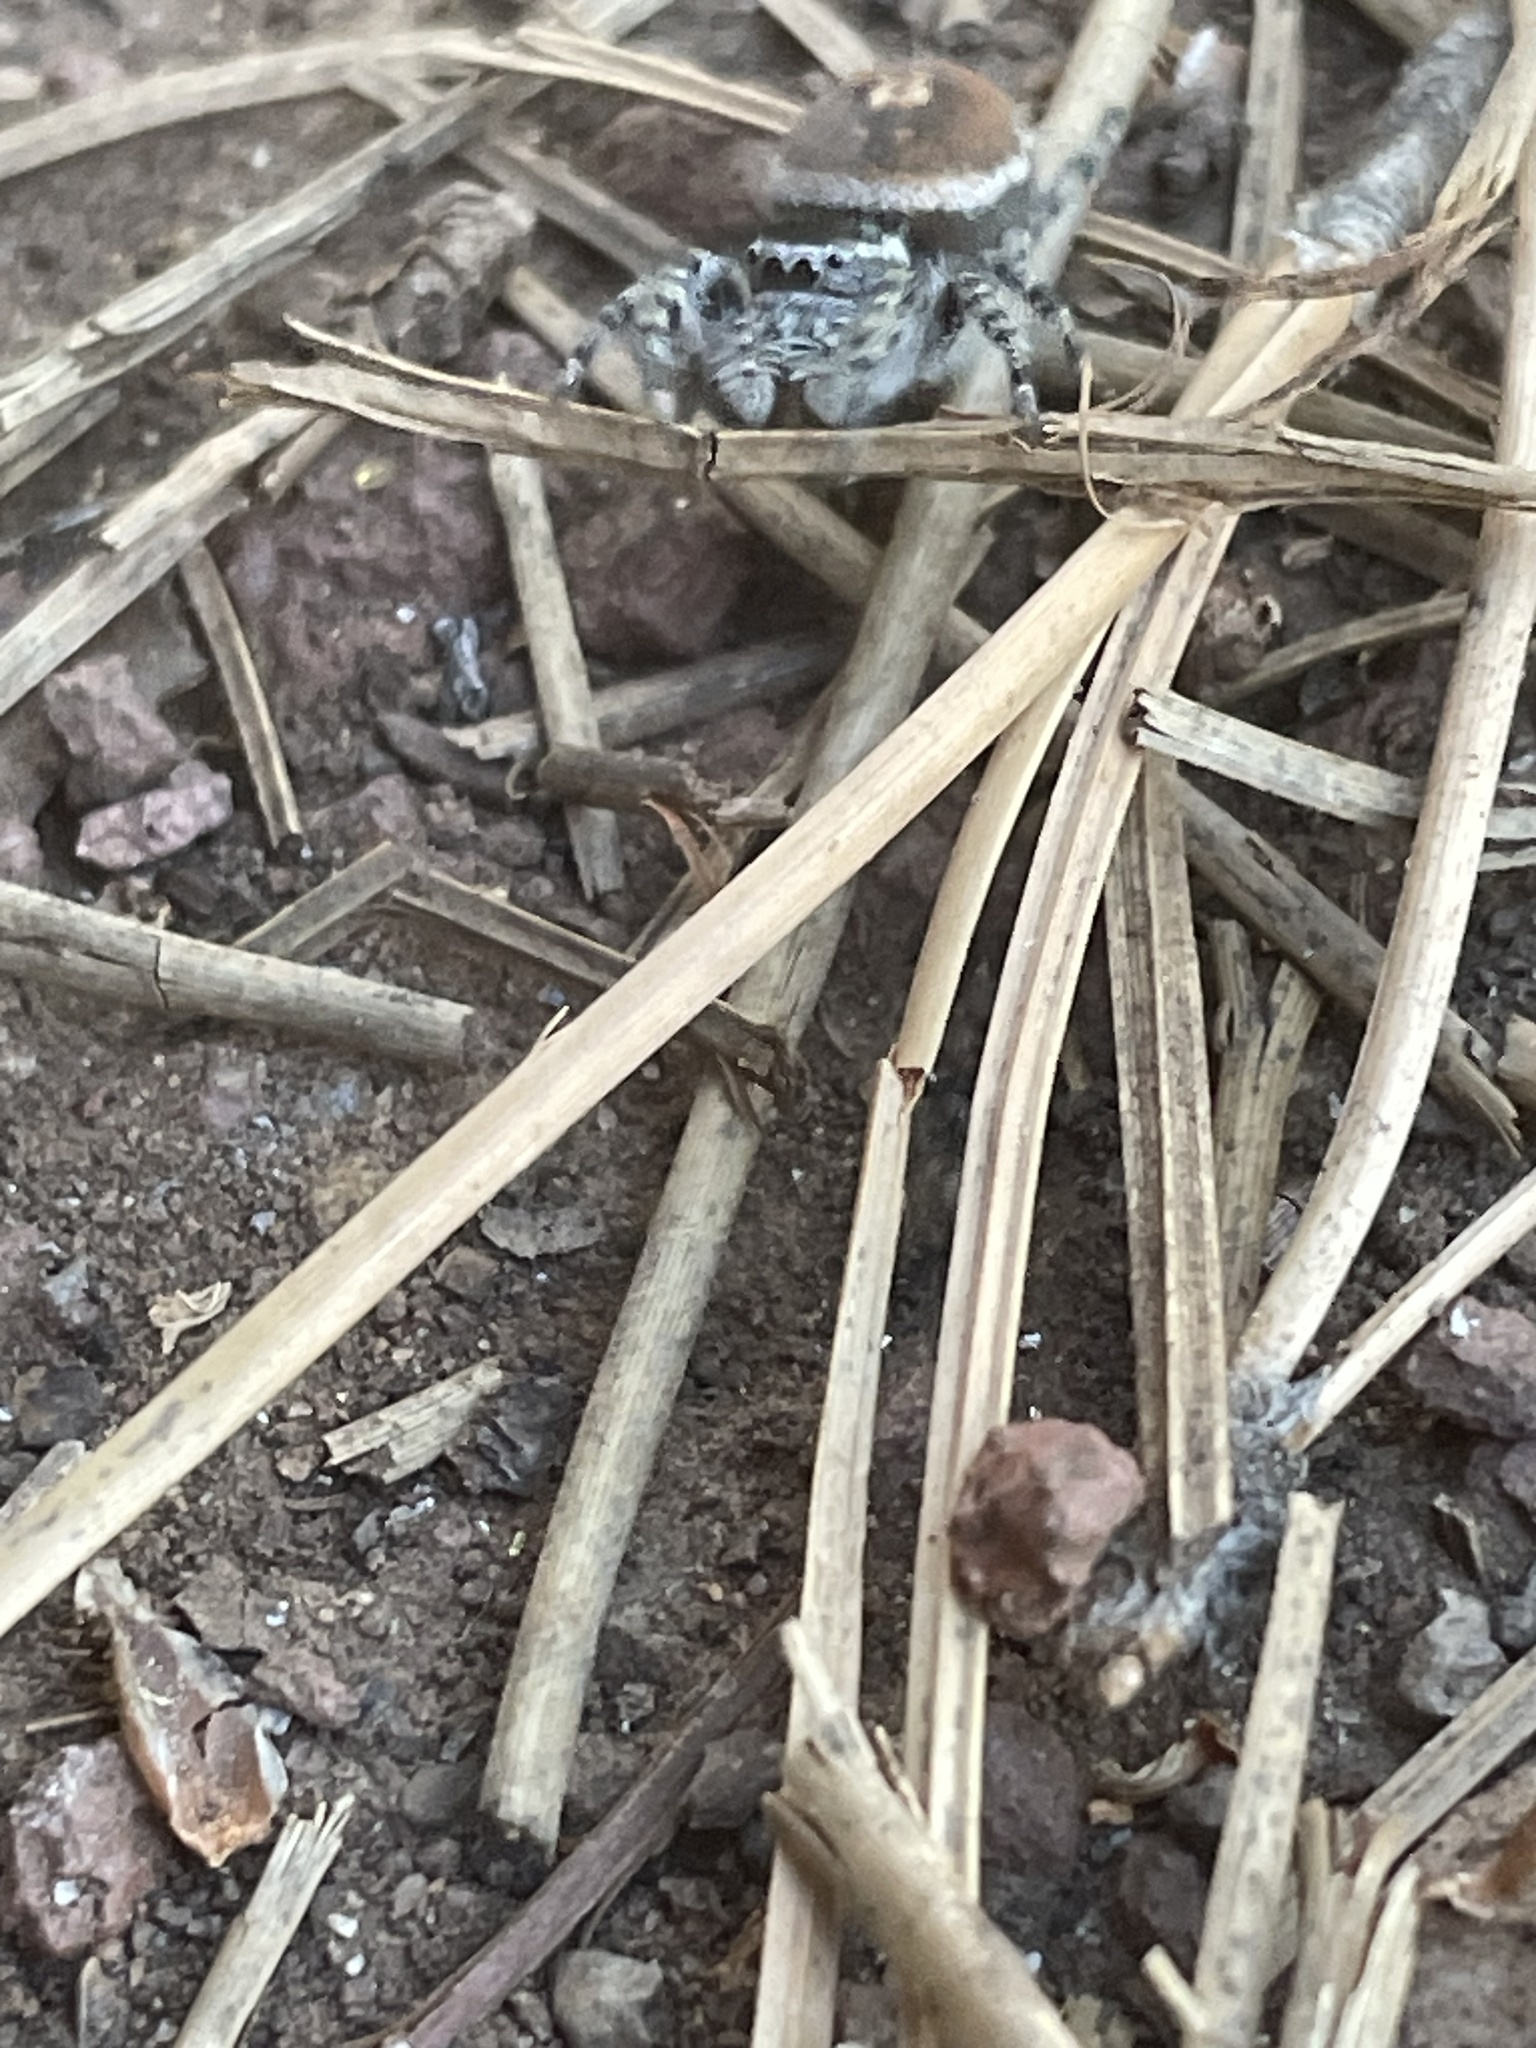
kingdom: Animalia
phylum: Arthropoda
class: Arachnida
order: Araneae
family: Salticidae
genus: Phidippus
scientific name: Phidippus tyrrelli
